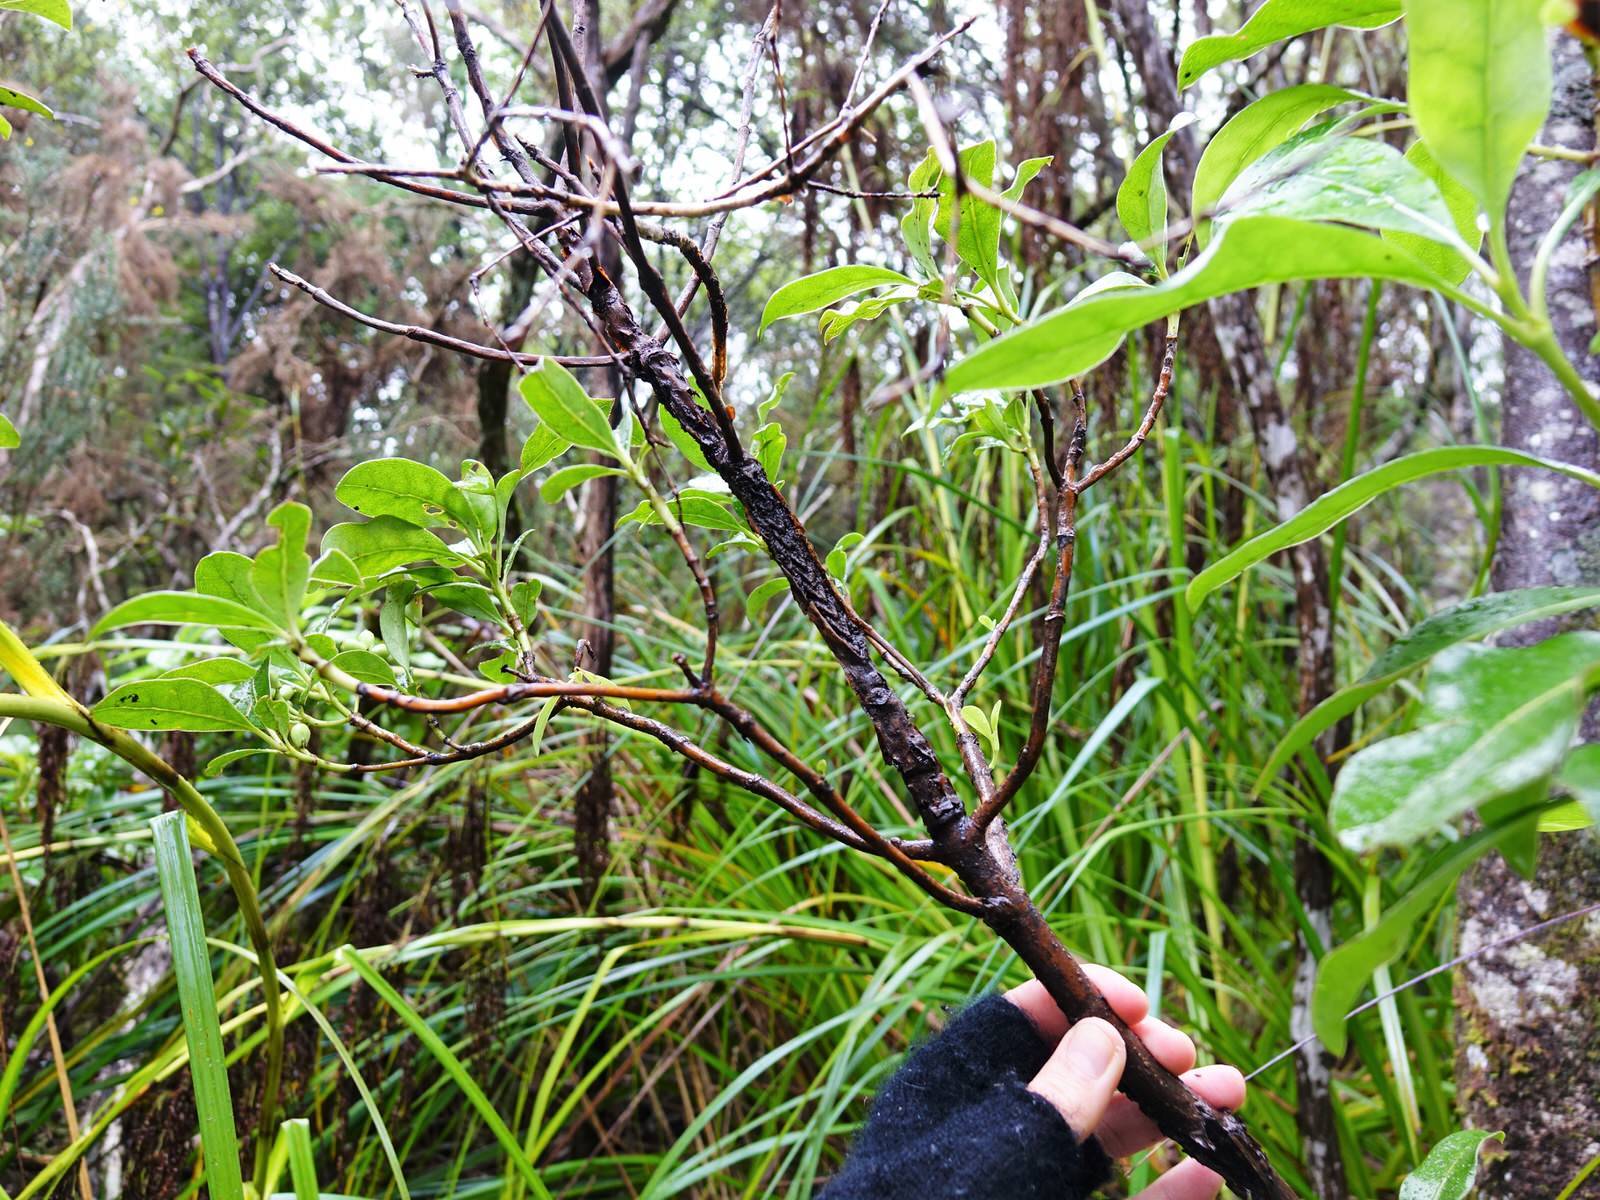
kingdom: Plantae
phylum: Tracheophyta
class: Magnoliopsida
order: Gentianales
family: Rubiaceae
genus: Coprosma
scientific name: Coprosma lucida
